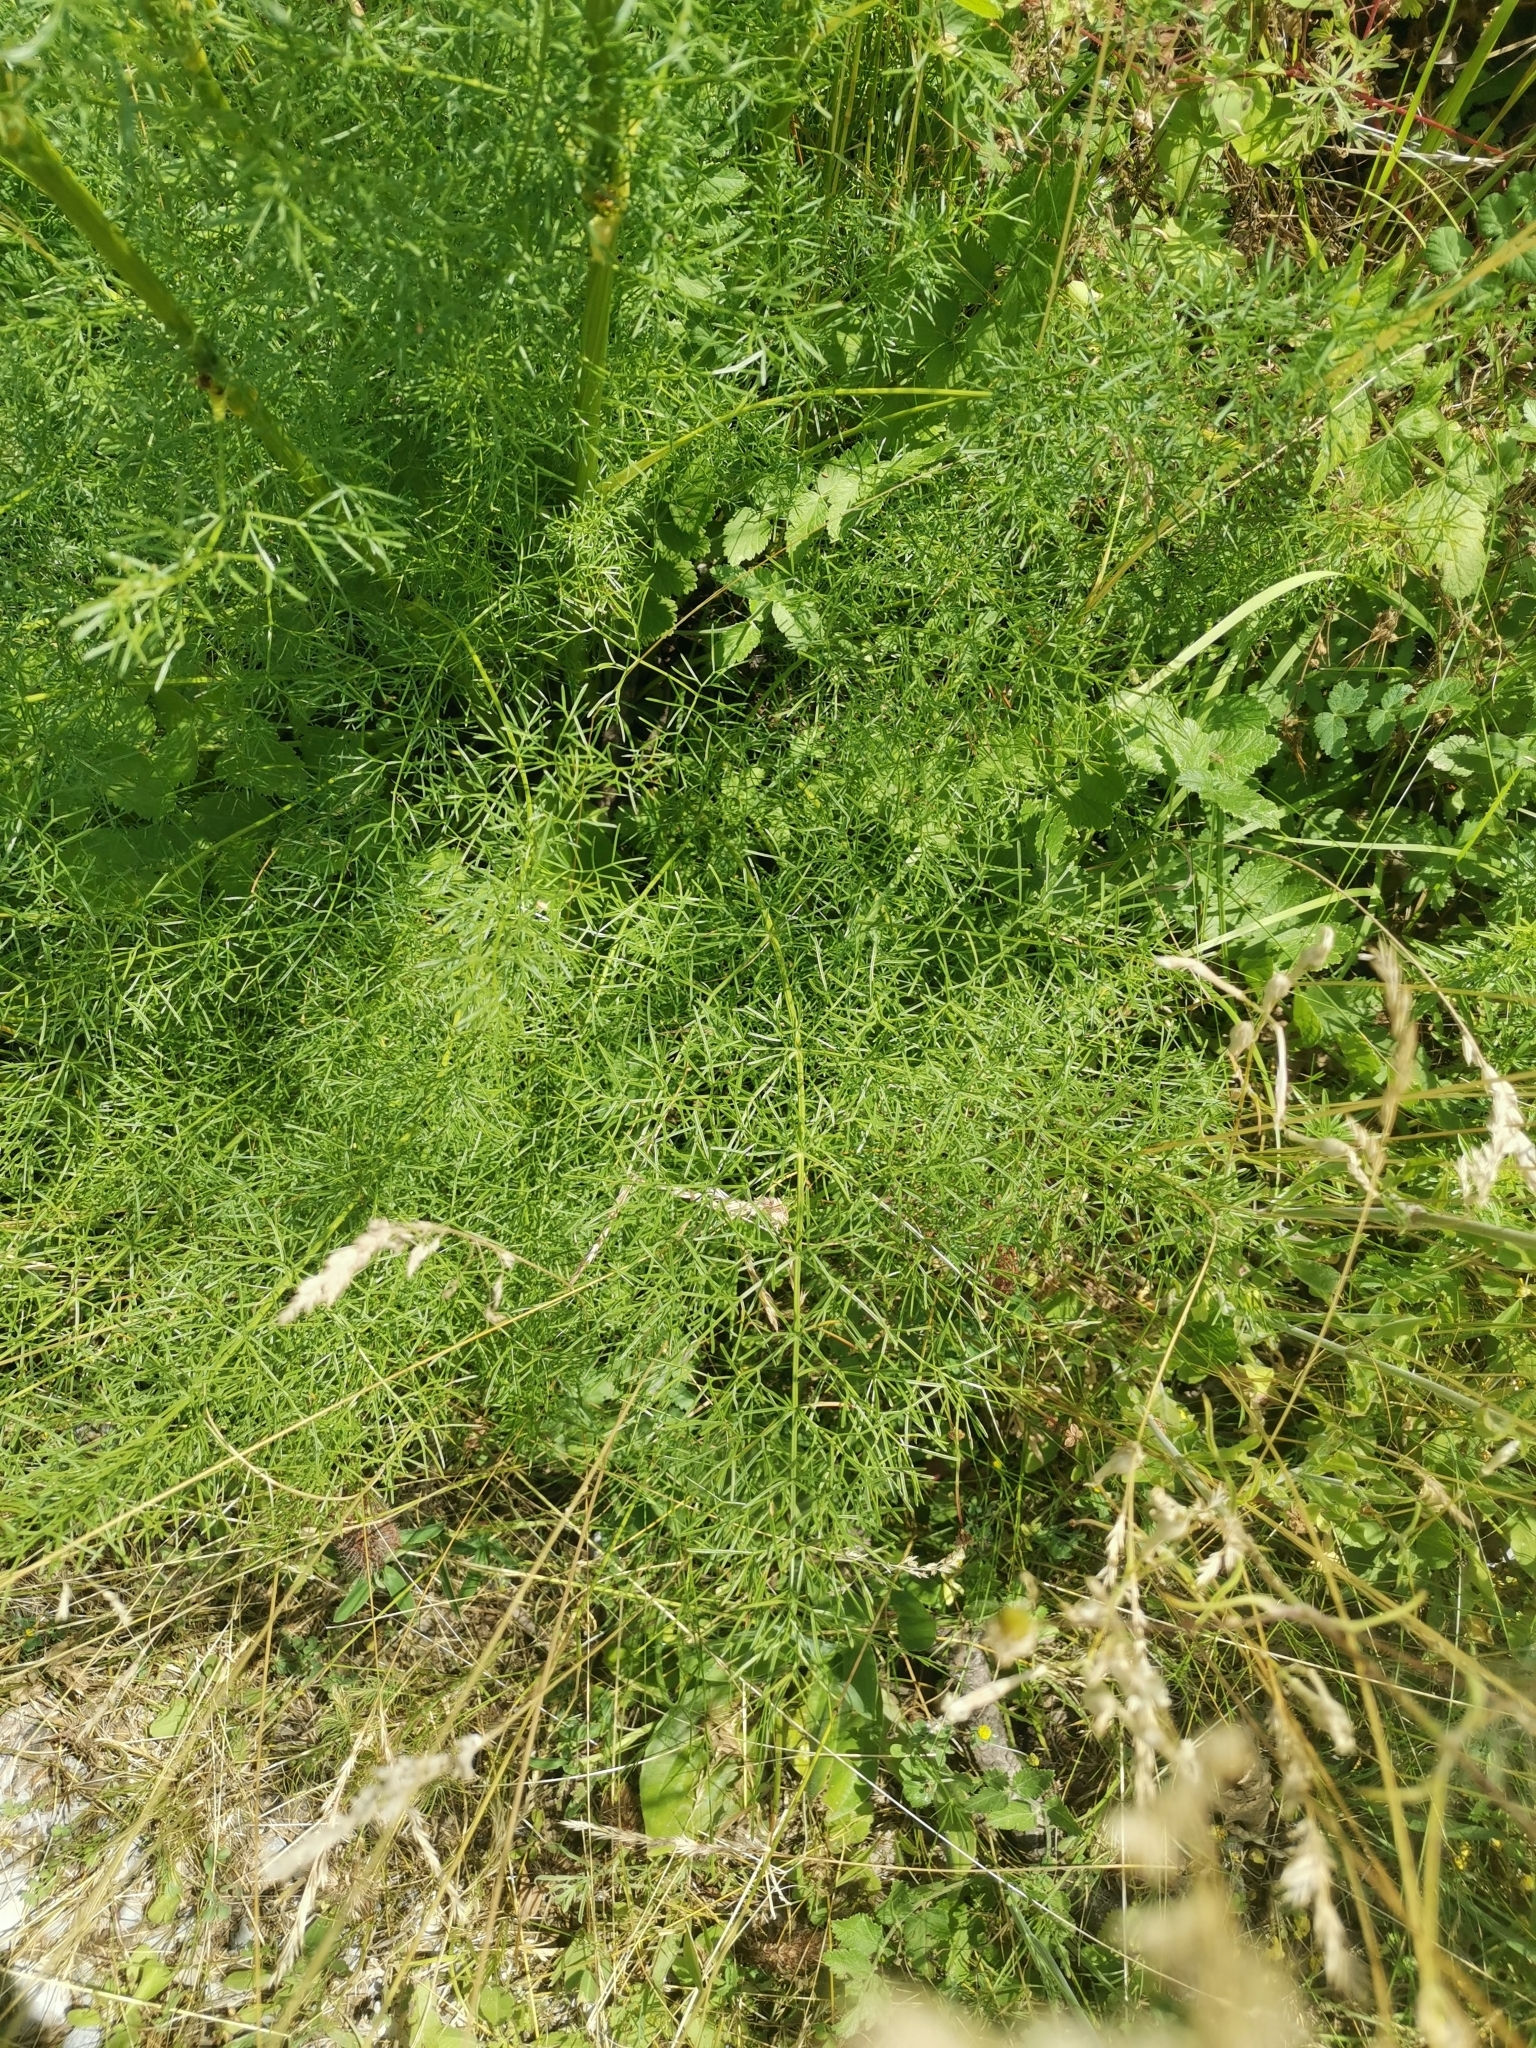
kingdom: Plantae
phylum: Tracheophyta
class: Magnoliopsida
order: Apiales
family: Apiaceae
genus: Ferulago
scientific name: Ferulago galbanifera
